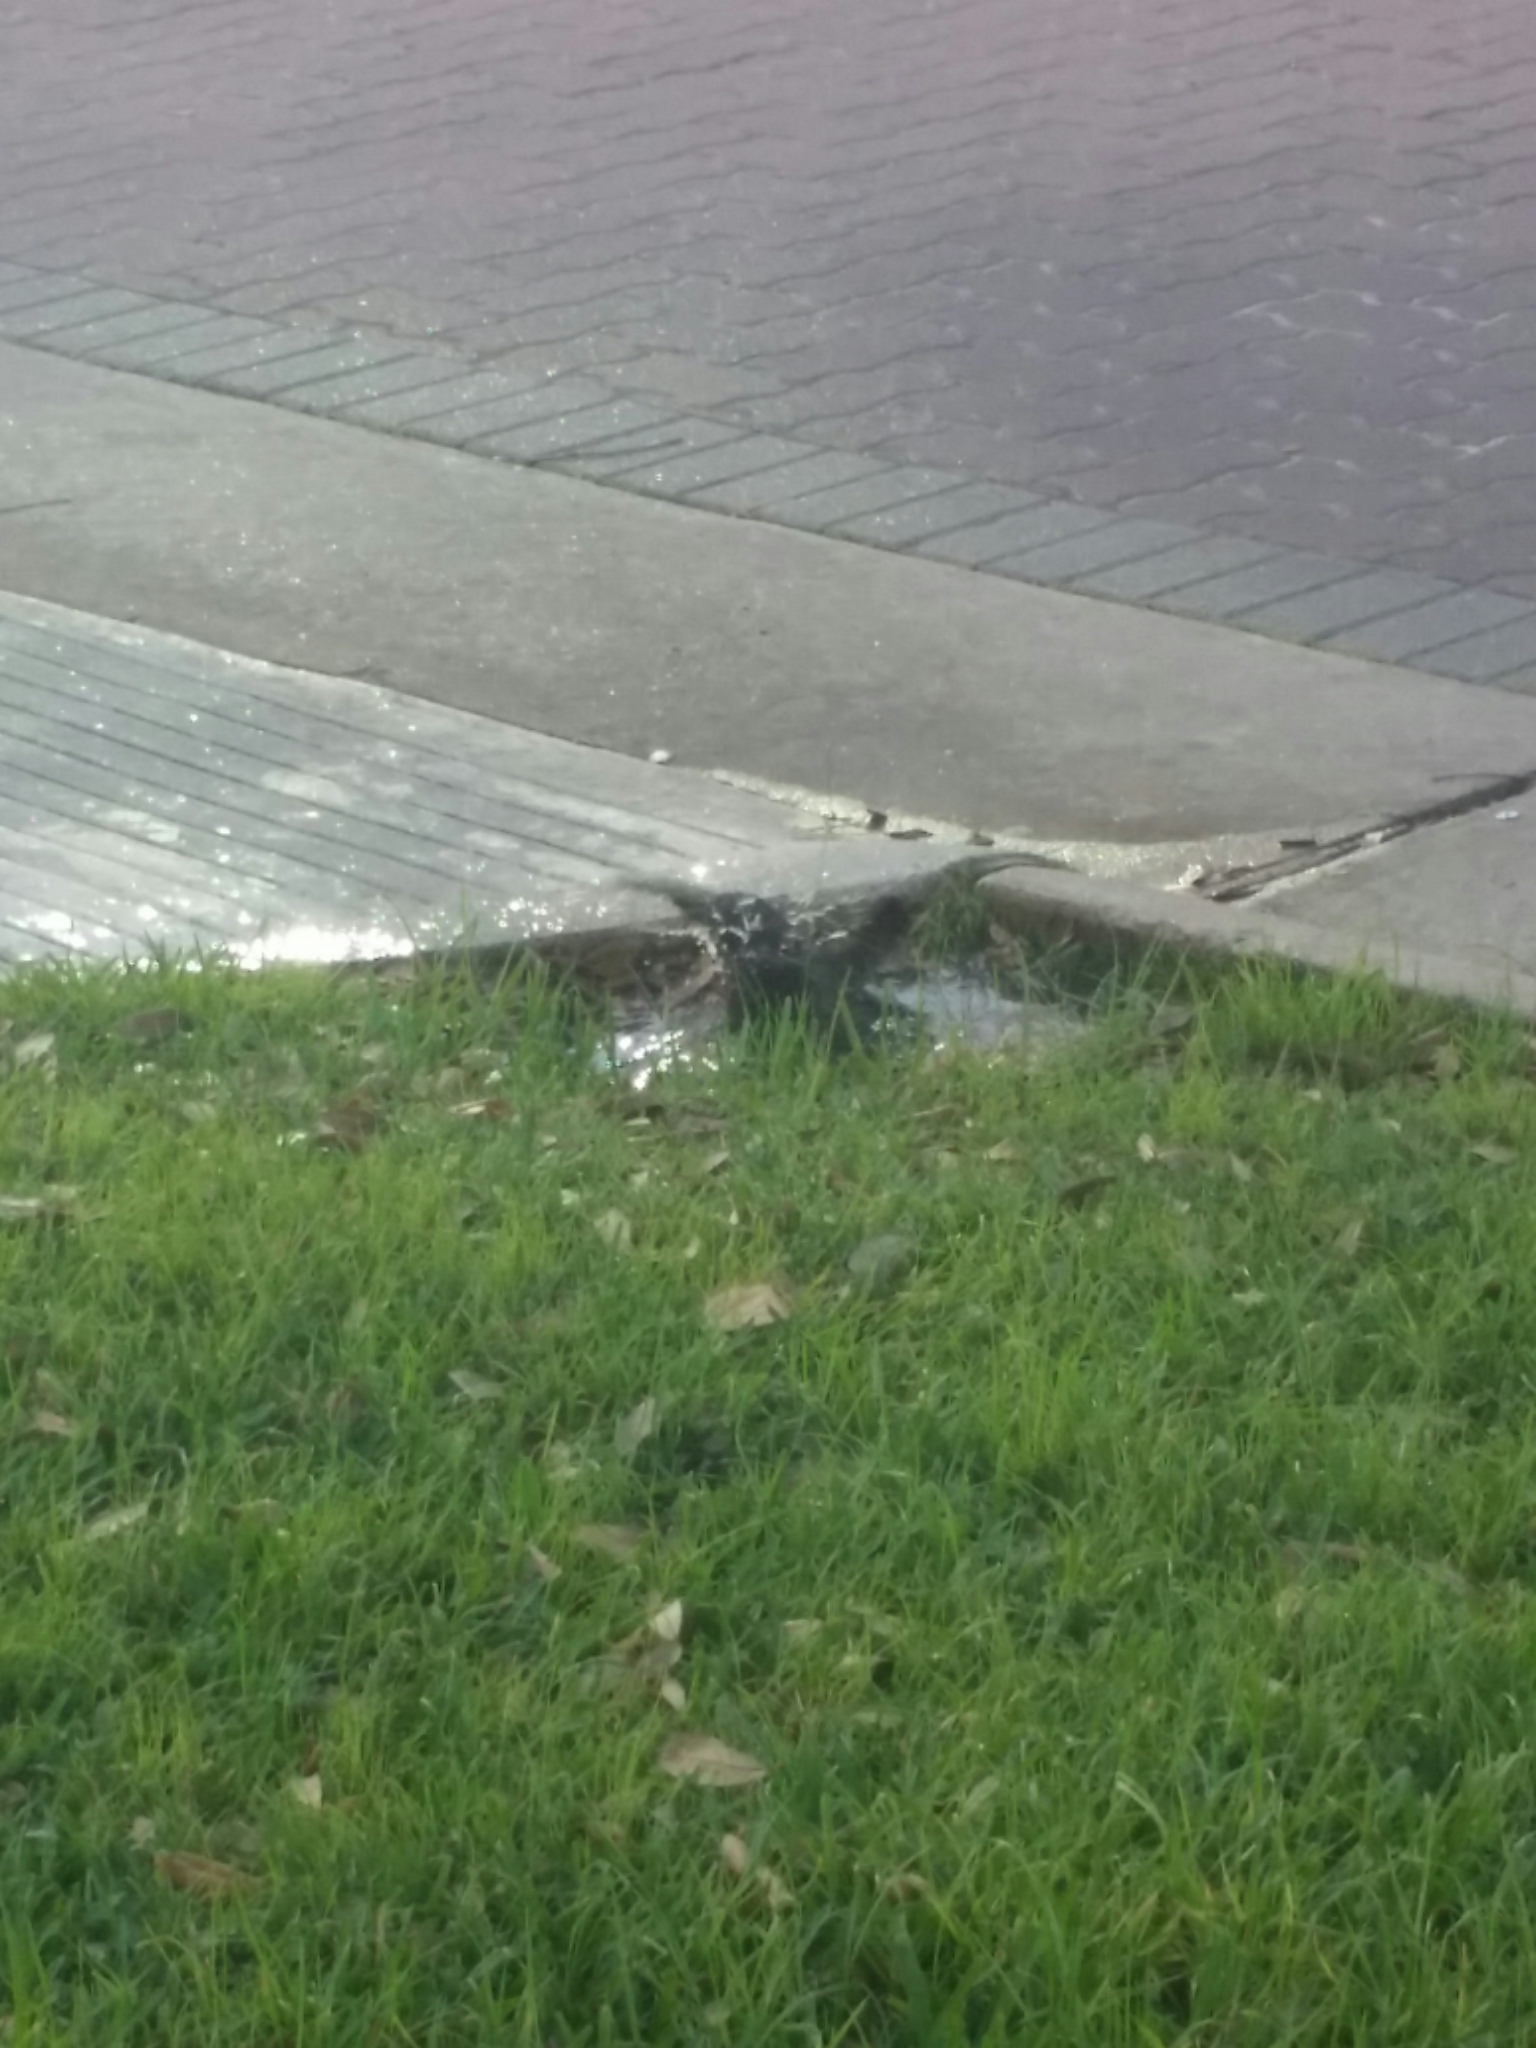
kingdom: Animalia
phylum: Chordata
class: Aves
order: Passeriformes
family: Icteridae
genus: Quiscalus
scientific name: Quiscalus mexicanus
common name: Great-tailed grackle
